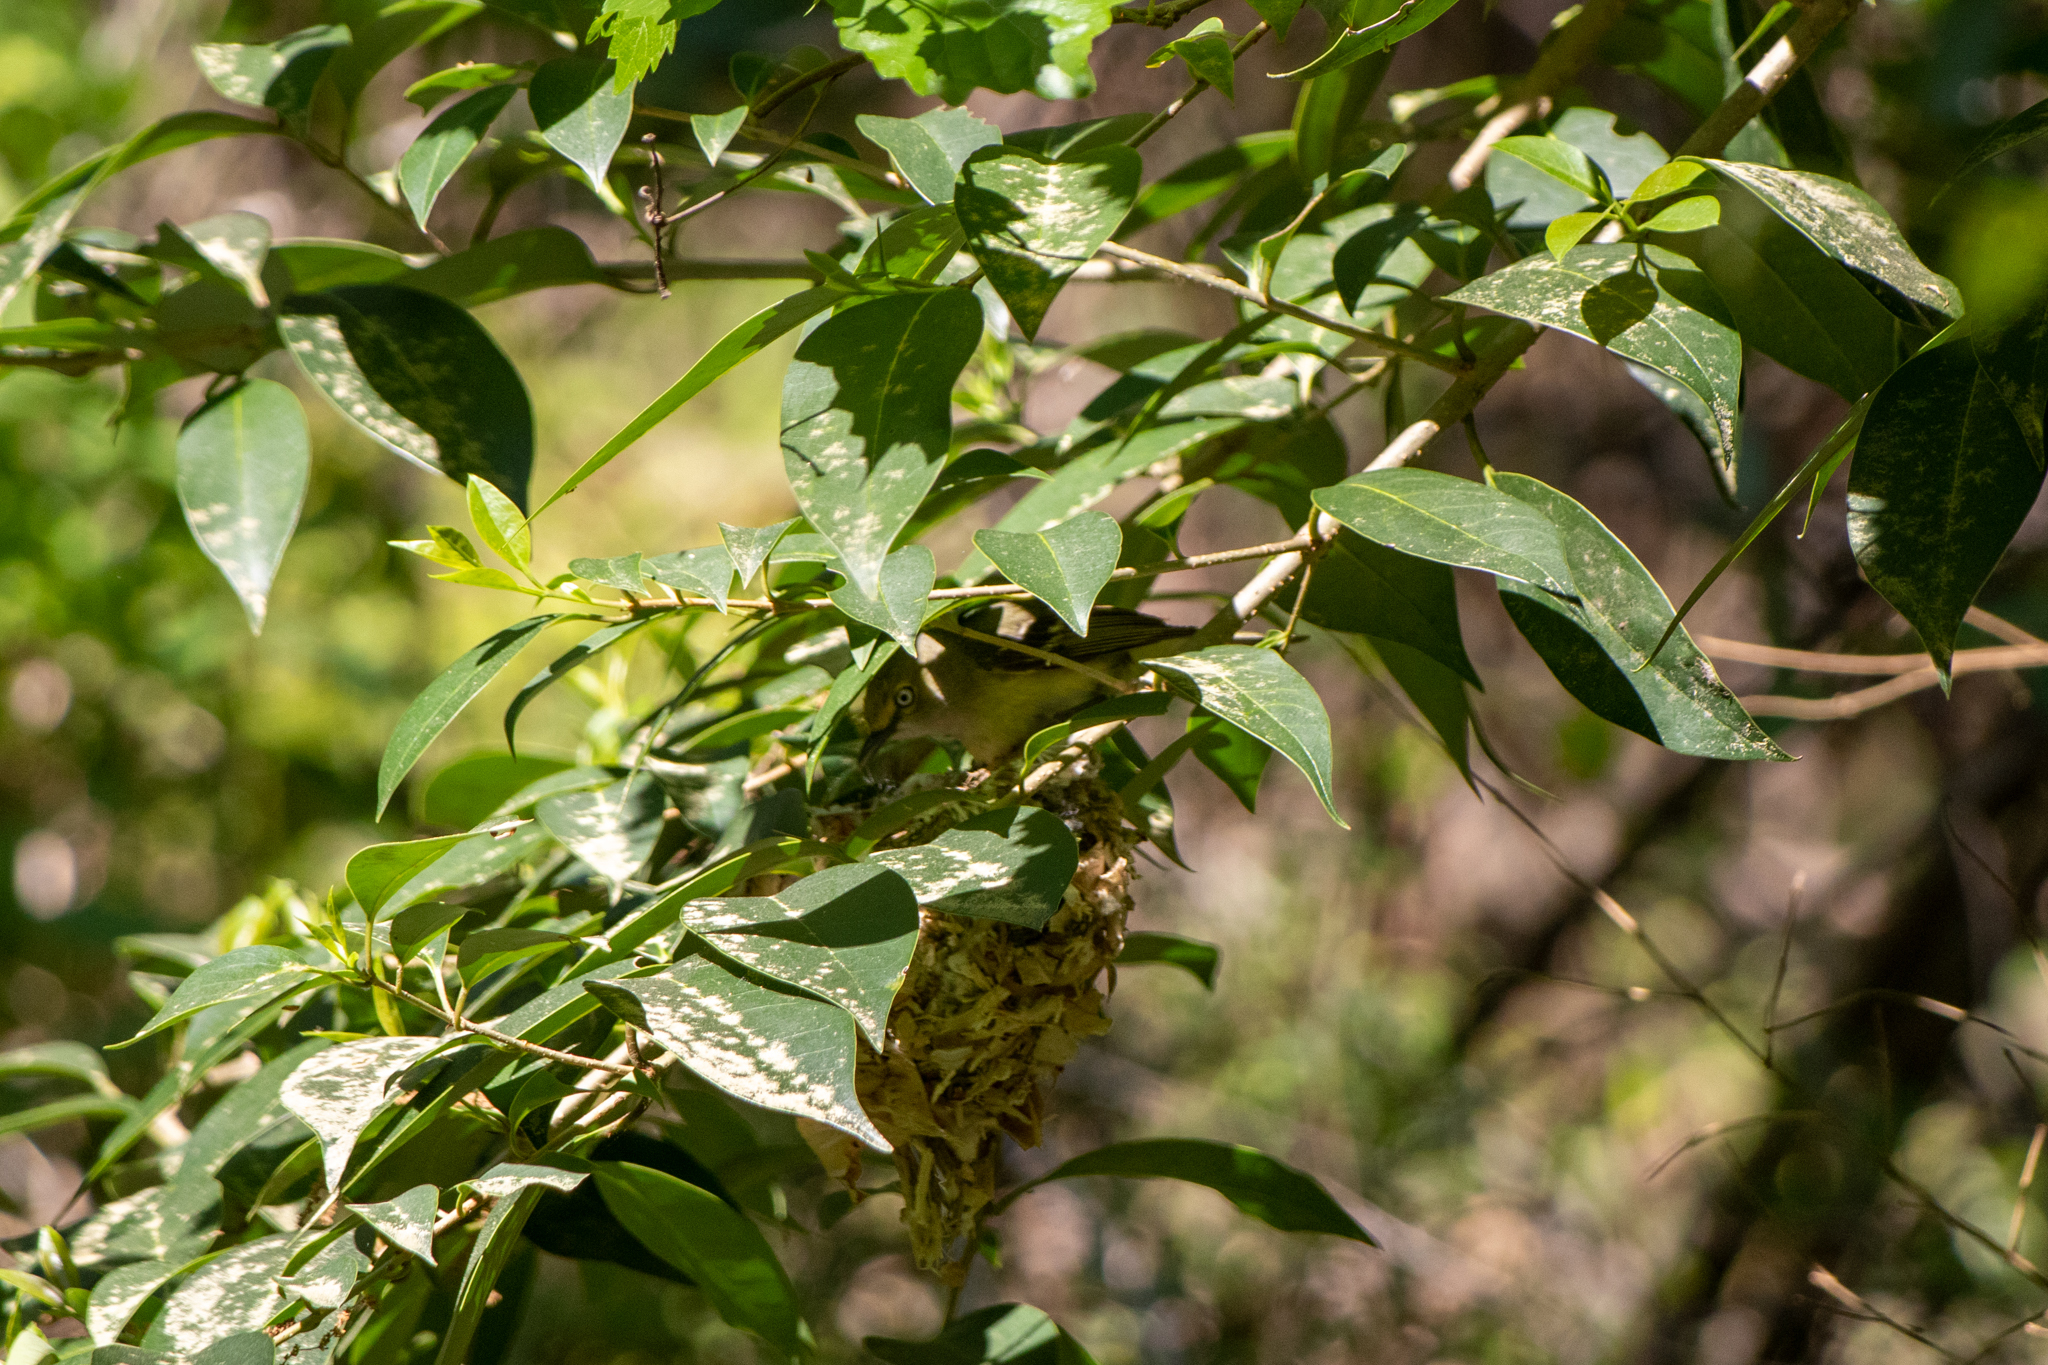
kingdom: Animalia
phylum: Chordata
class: Aves
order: Passeriformes
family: Vireonidae
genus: Vireo
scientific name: Vireo griseus
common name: White-eyed vireo
